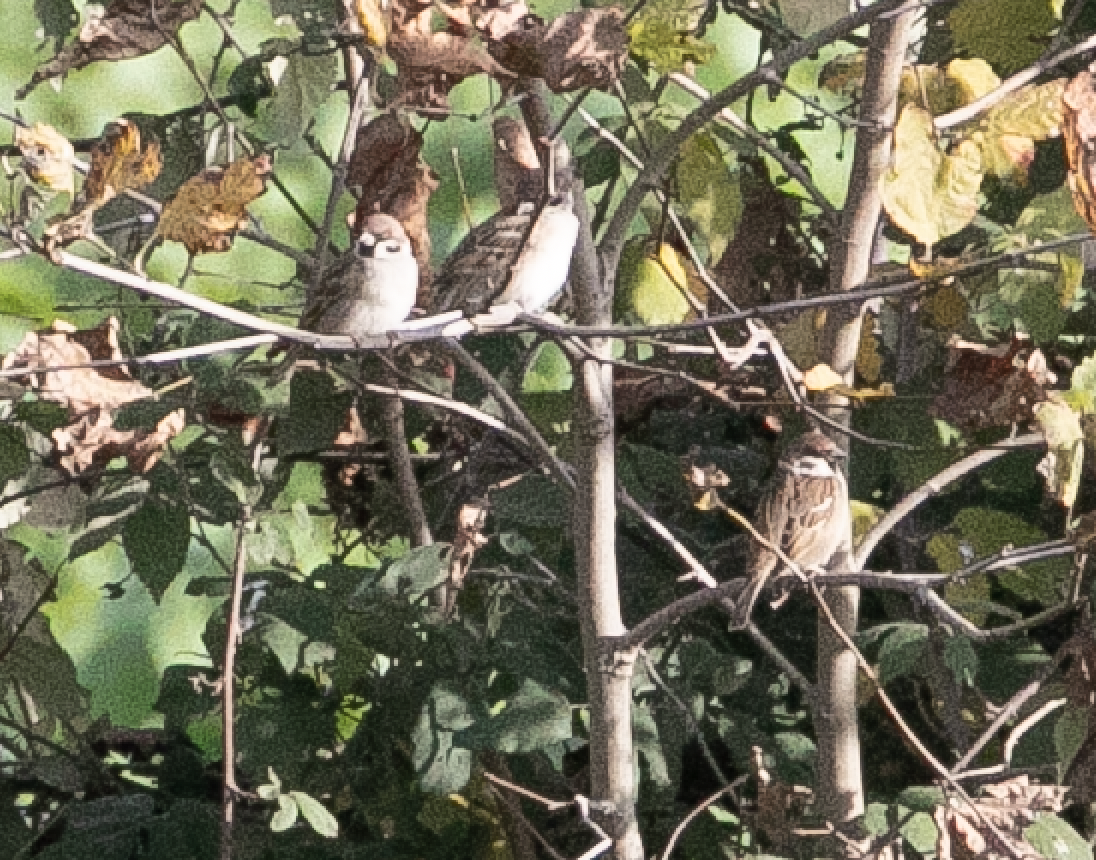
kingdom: Animalia
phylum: Chordata
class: Aves
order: Passeriformes
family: Passeridae
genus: Passer
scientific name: Passer montanus
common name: Eurasian tree sparrow
